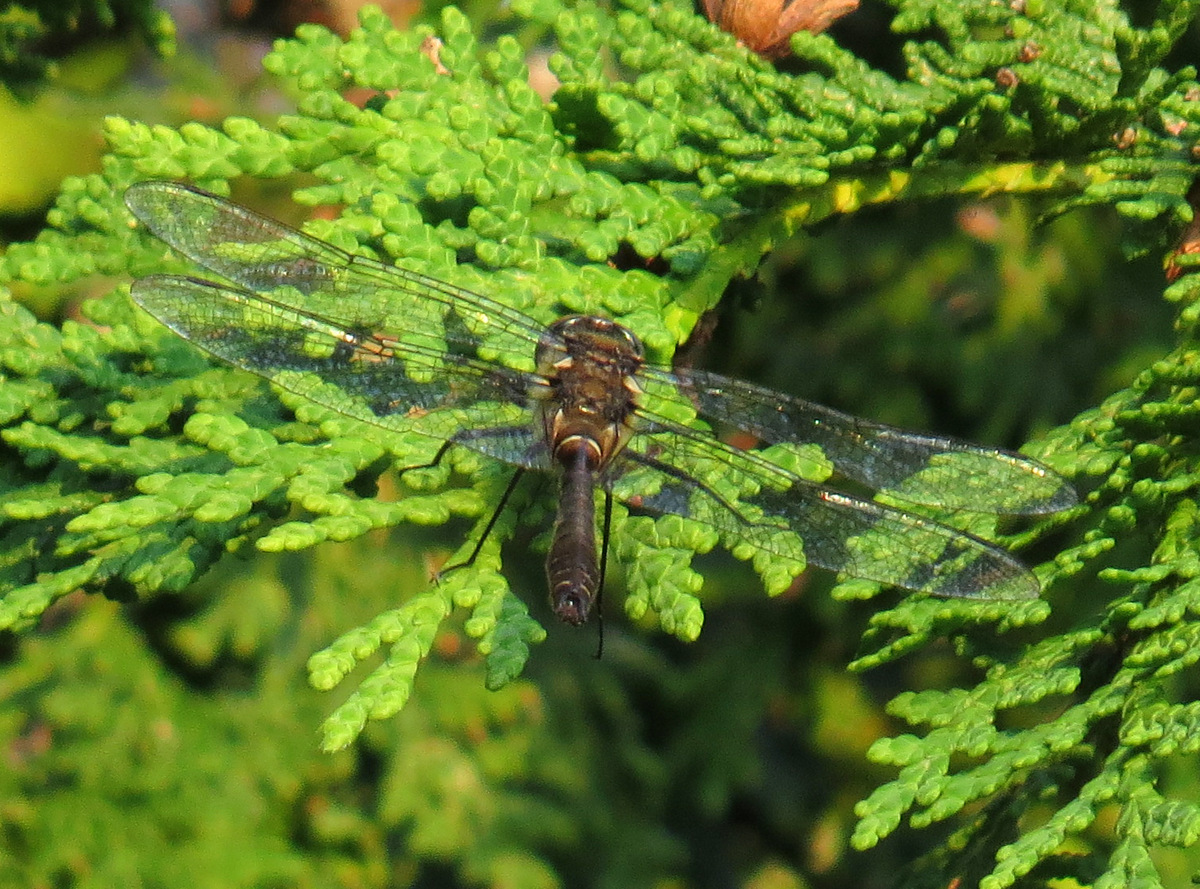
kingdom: Animalia
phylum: Arthropoda
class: Insecta
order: Odonata
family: Corduliidae
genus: Cordulia
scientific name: Cordulia shurtleffii
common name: American emerald
